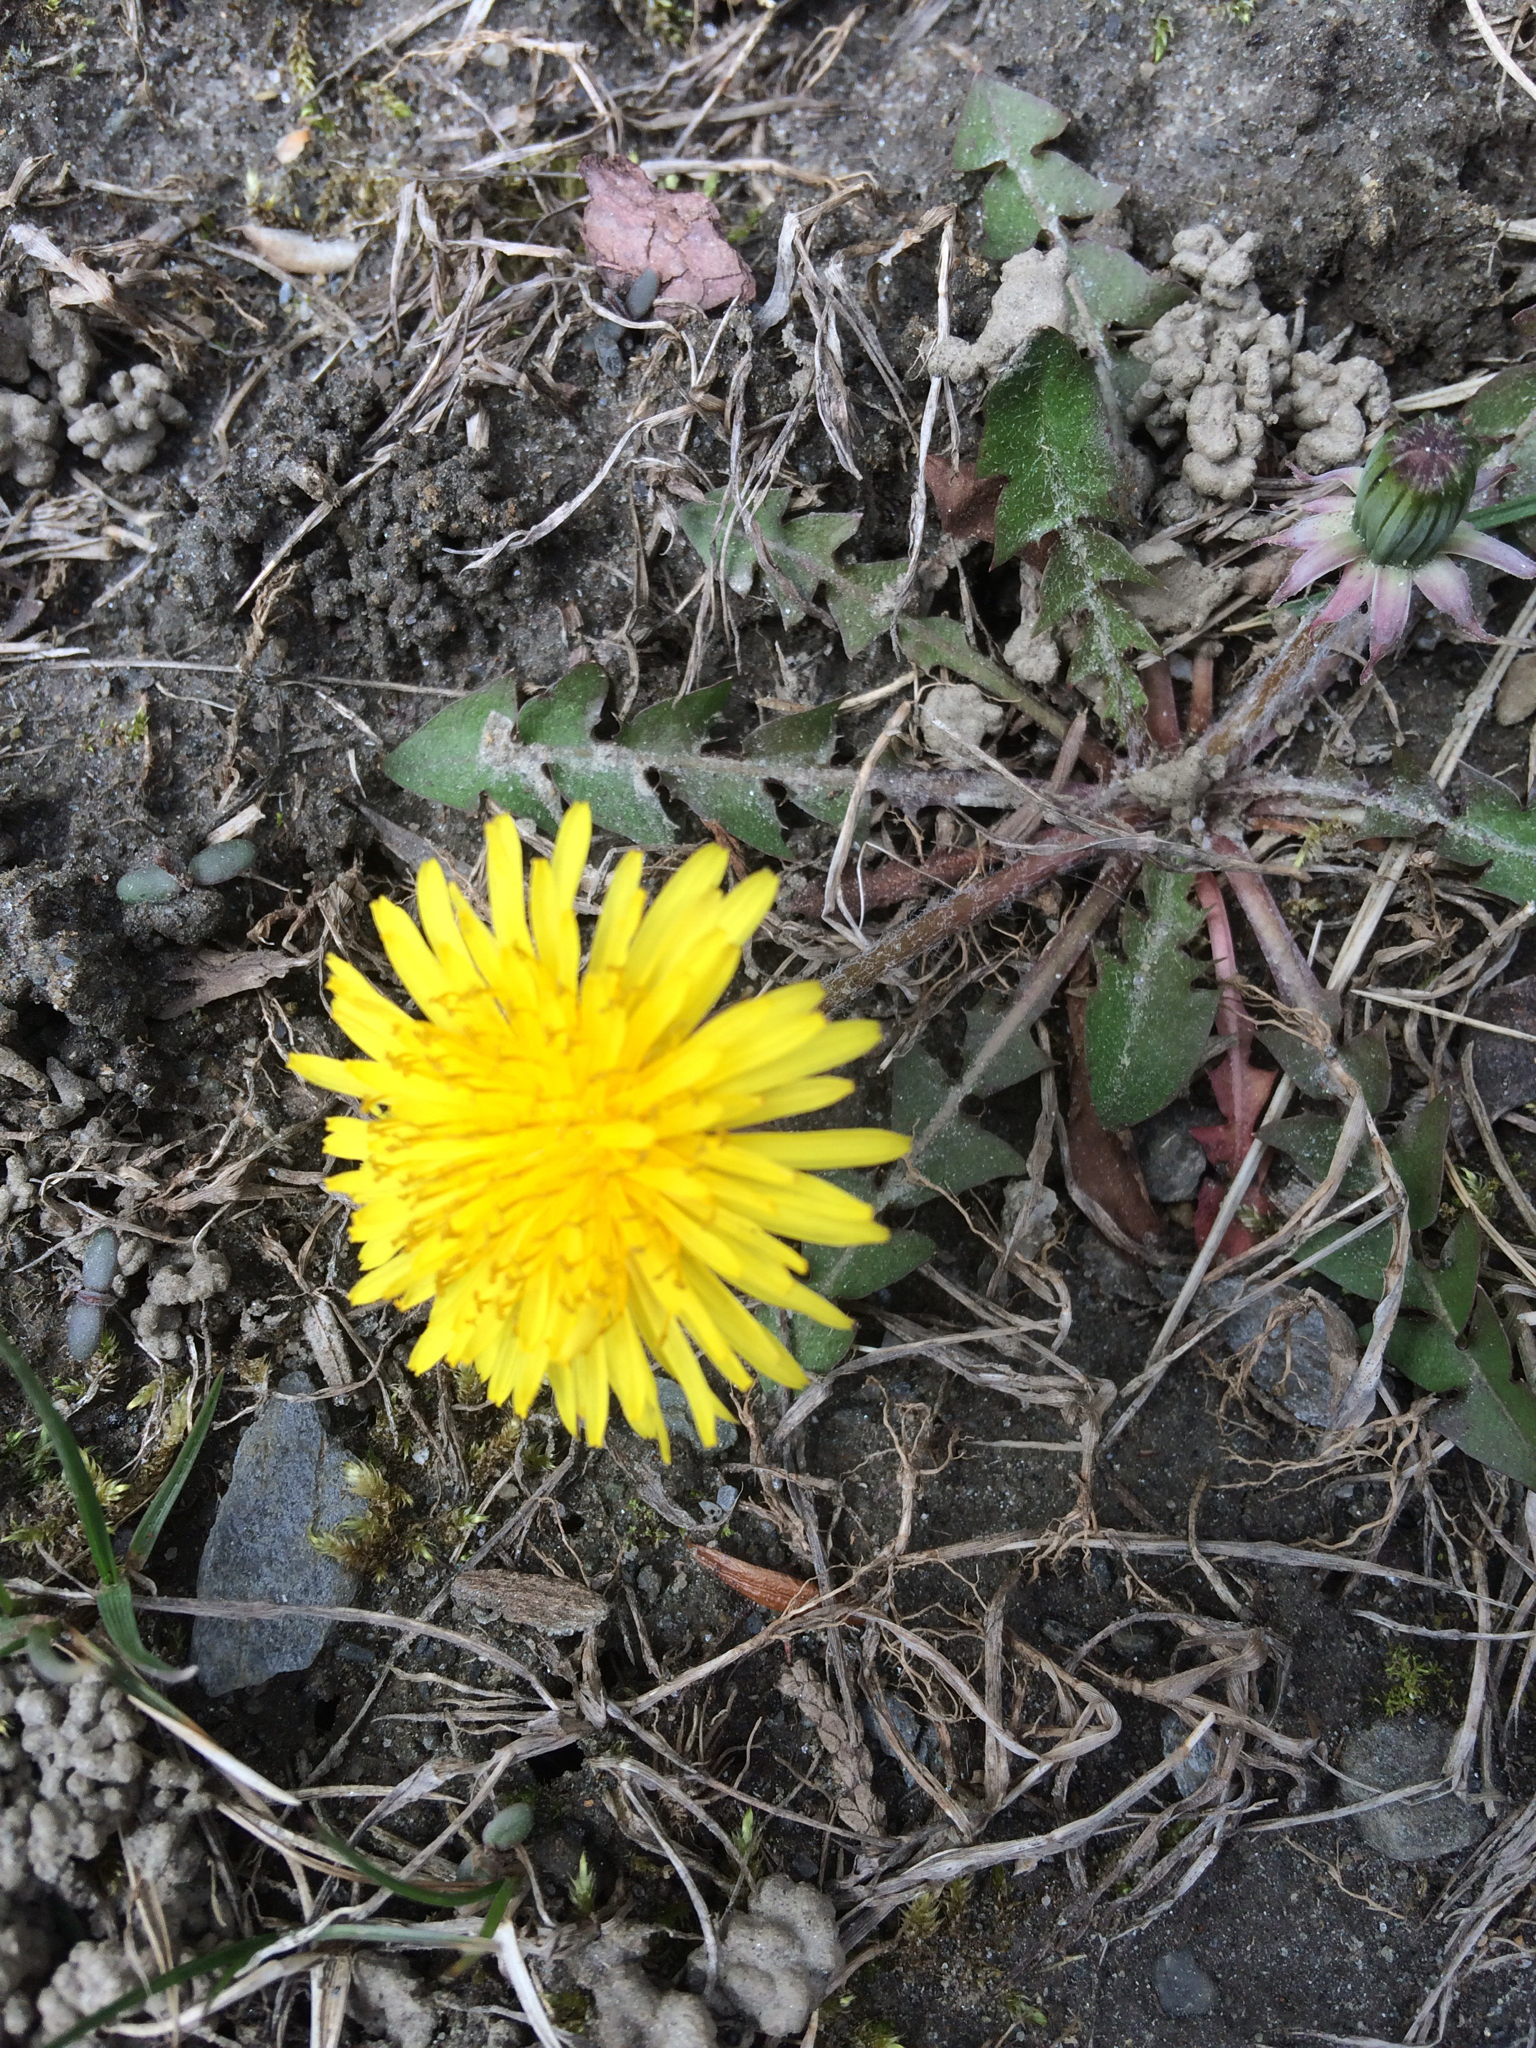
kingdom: Plantae
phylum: Tracheophyta
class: Magnoliopsida
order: Asterales
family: Asteraceae
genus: Taraxacum
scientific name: Taraxacum officinale
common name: Common dandelion
